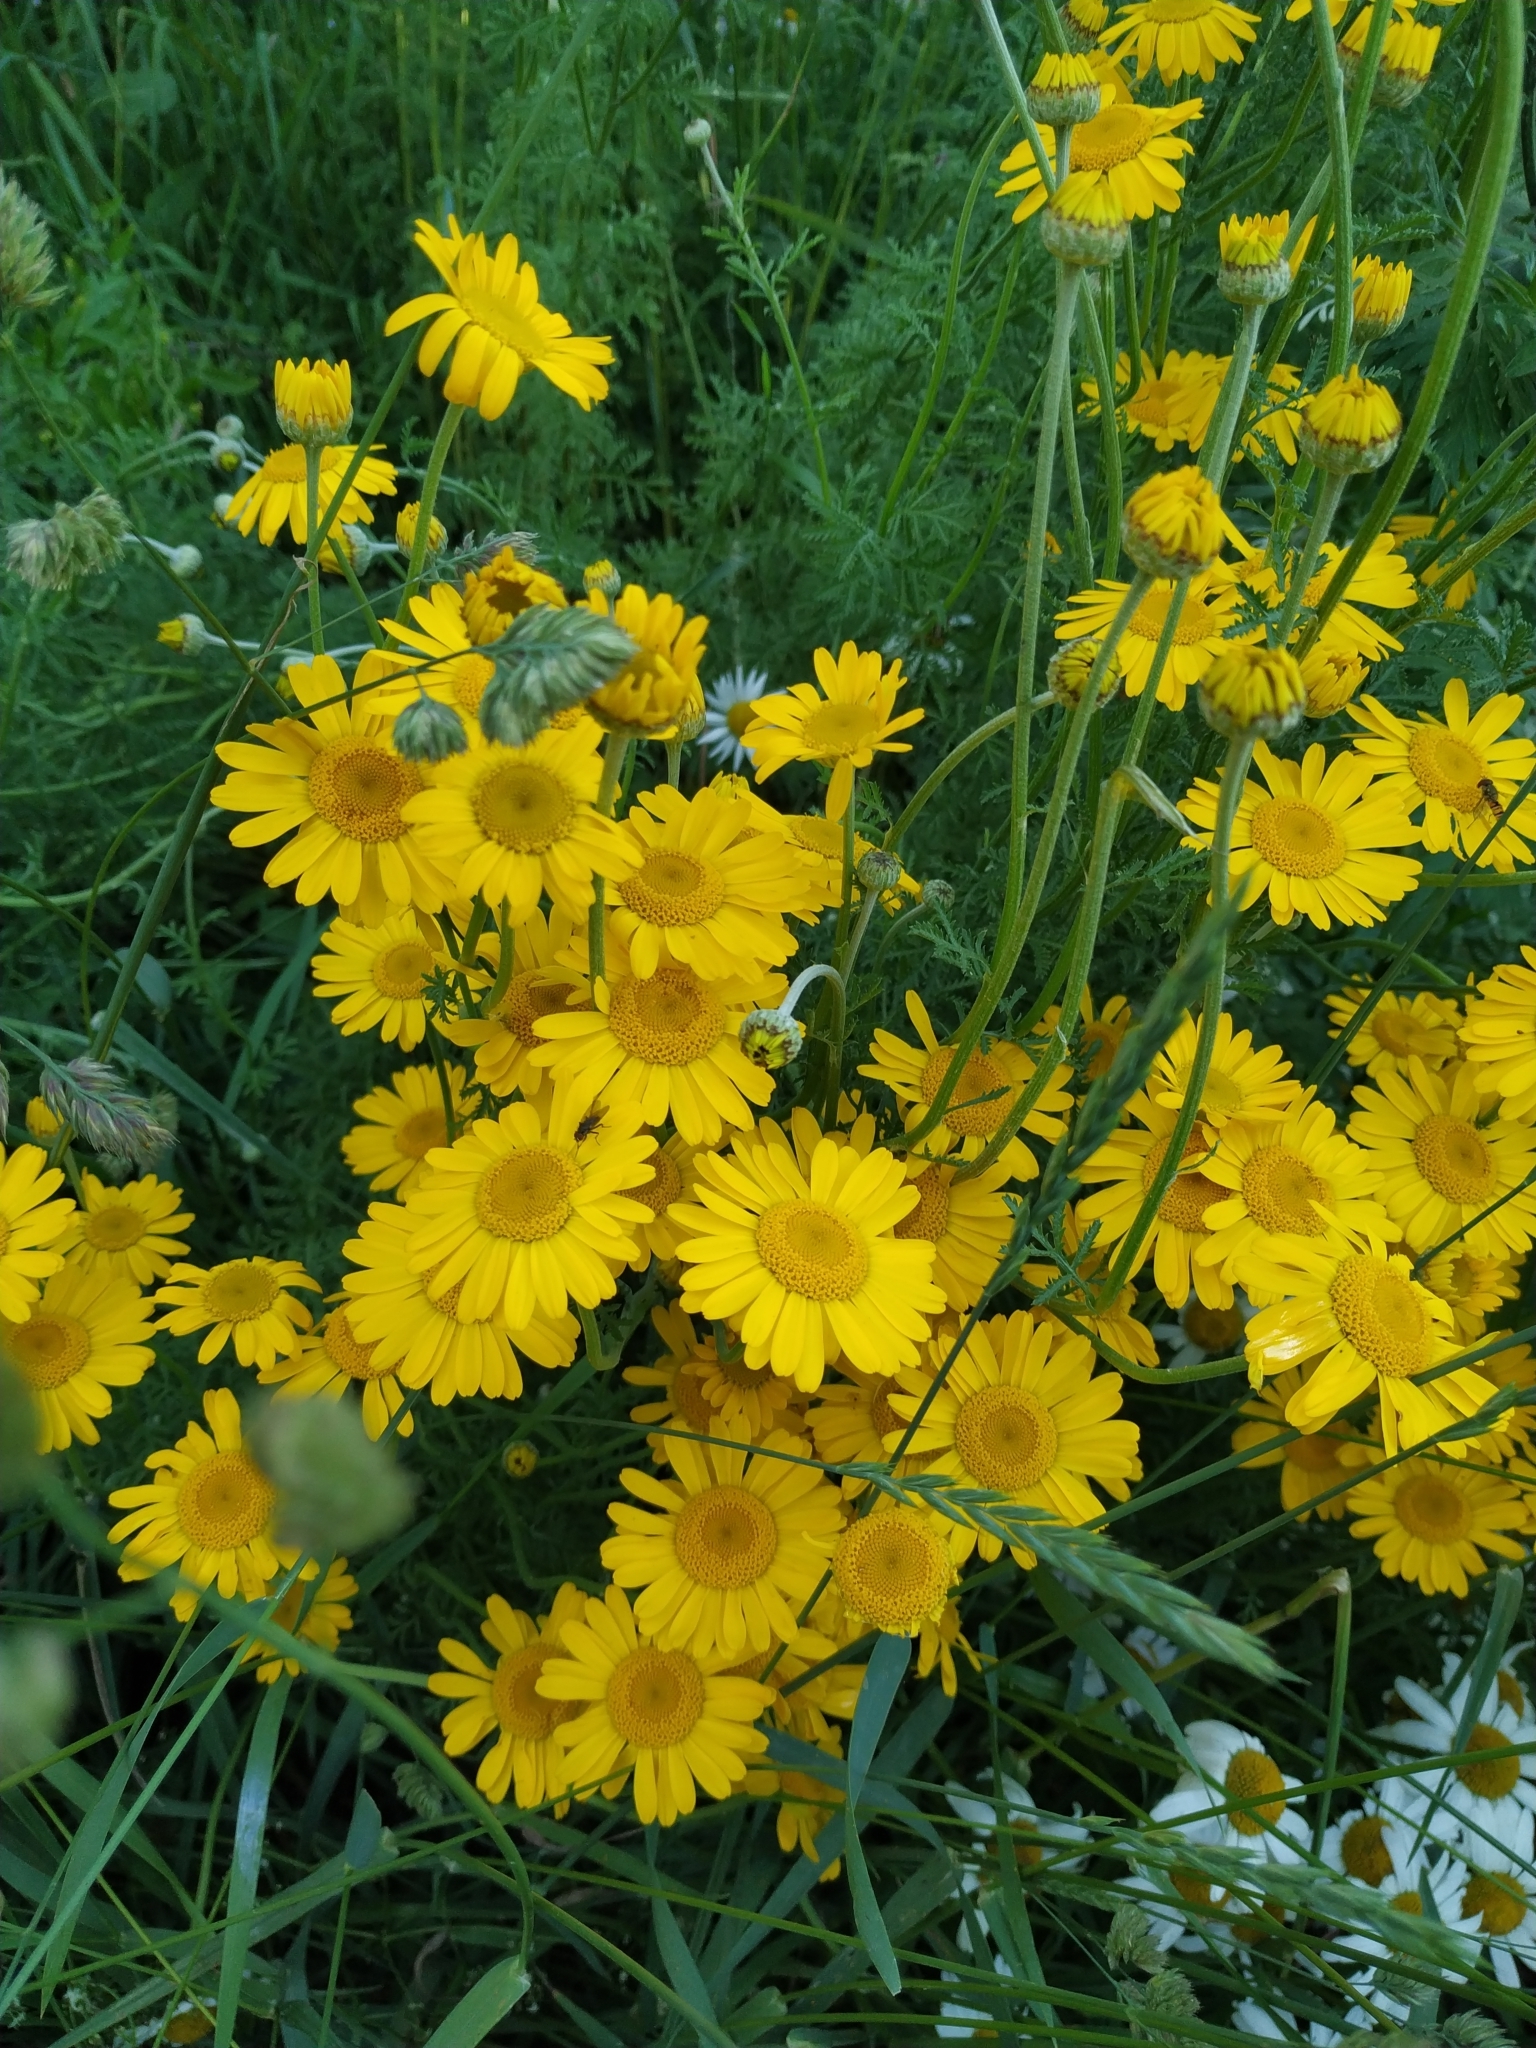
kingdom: Plantae
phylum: Tracheophyta
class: Magnoliopsida
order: Asterales
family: Asteraceae
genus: Cota
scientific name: Cota tinctoria
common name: Golden chamomile
